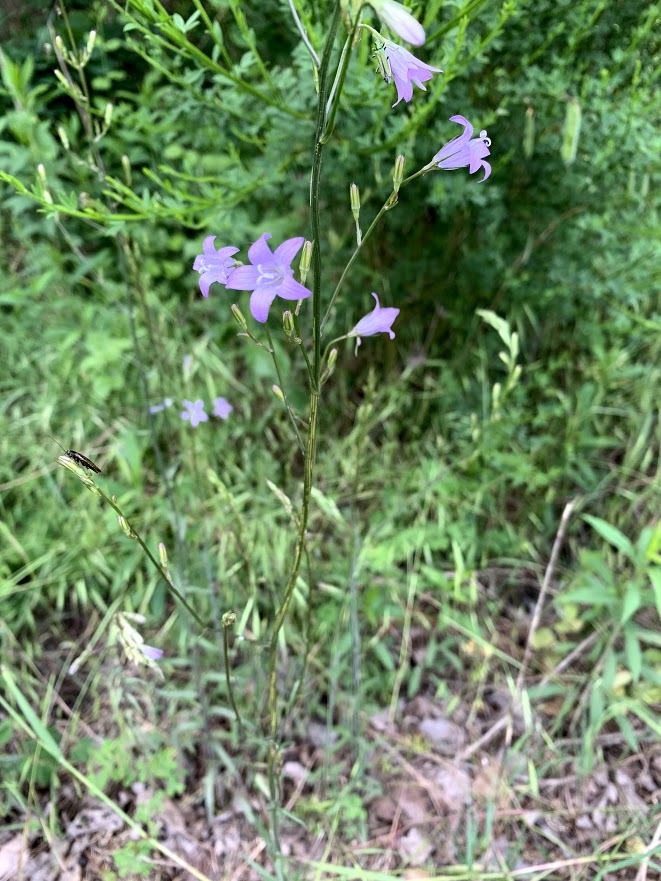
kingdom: Plantae
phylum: Tracheophyta
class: Magnoliopsida
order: Asterales
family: Campanulaceae
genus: Campanula
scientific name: Campanula rapunculus
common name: Rampion bellflower
